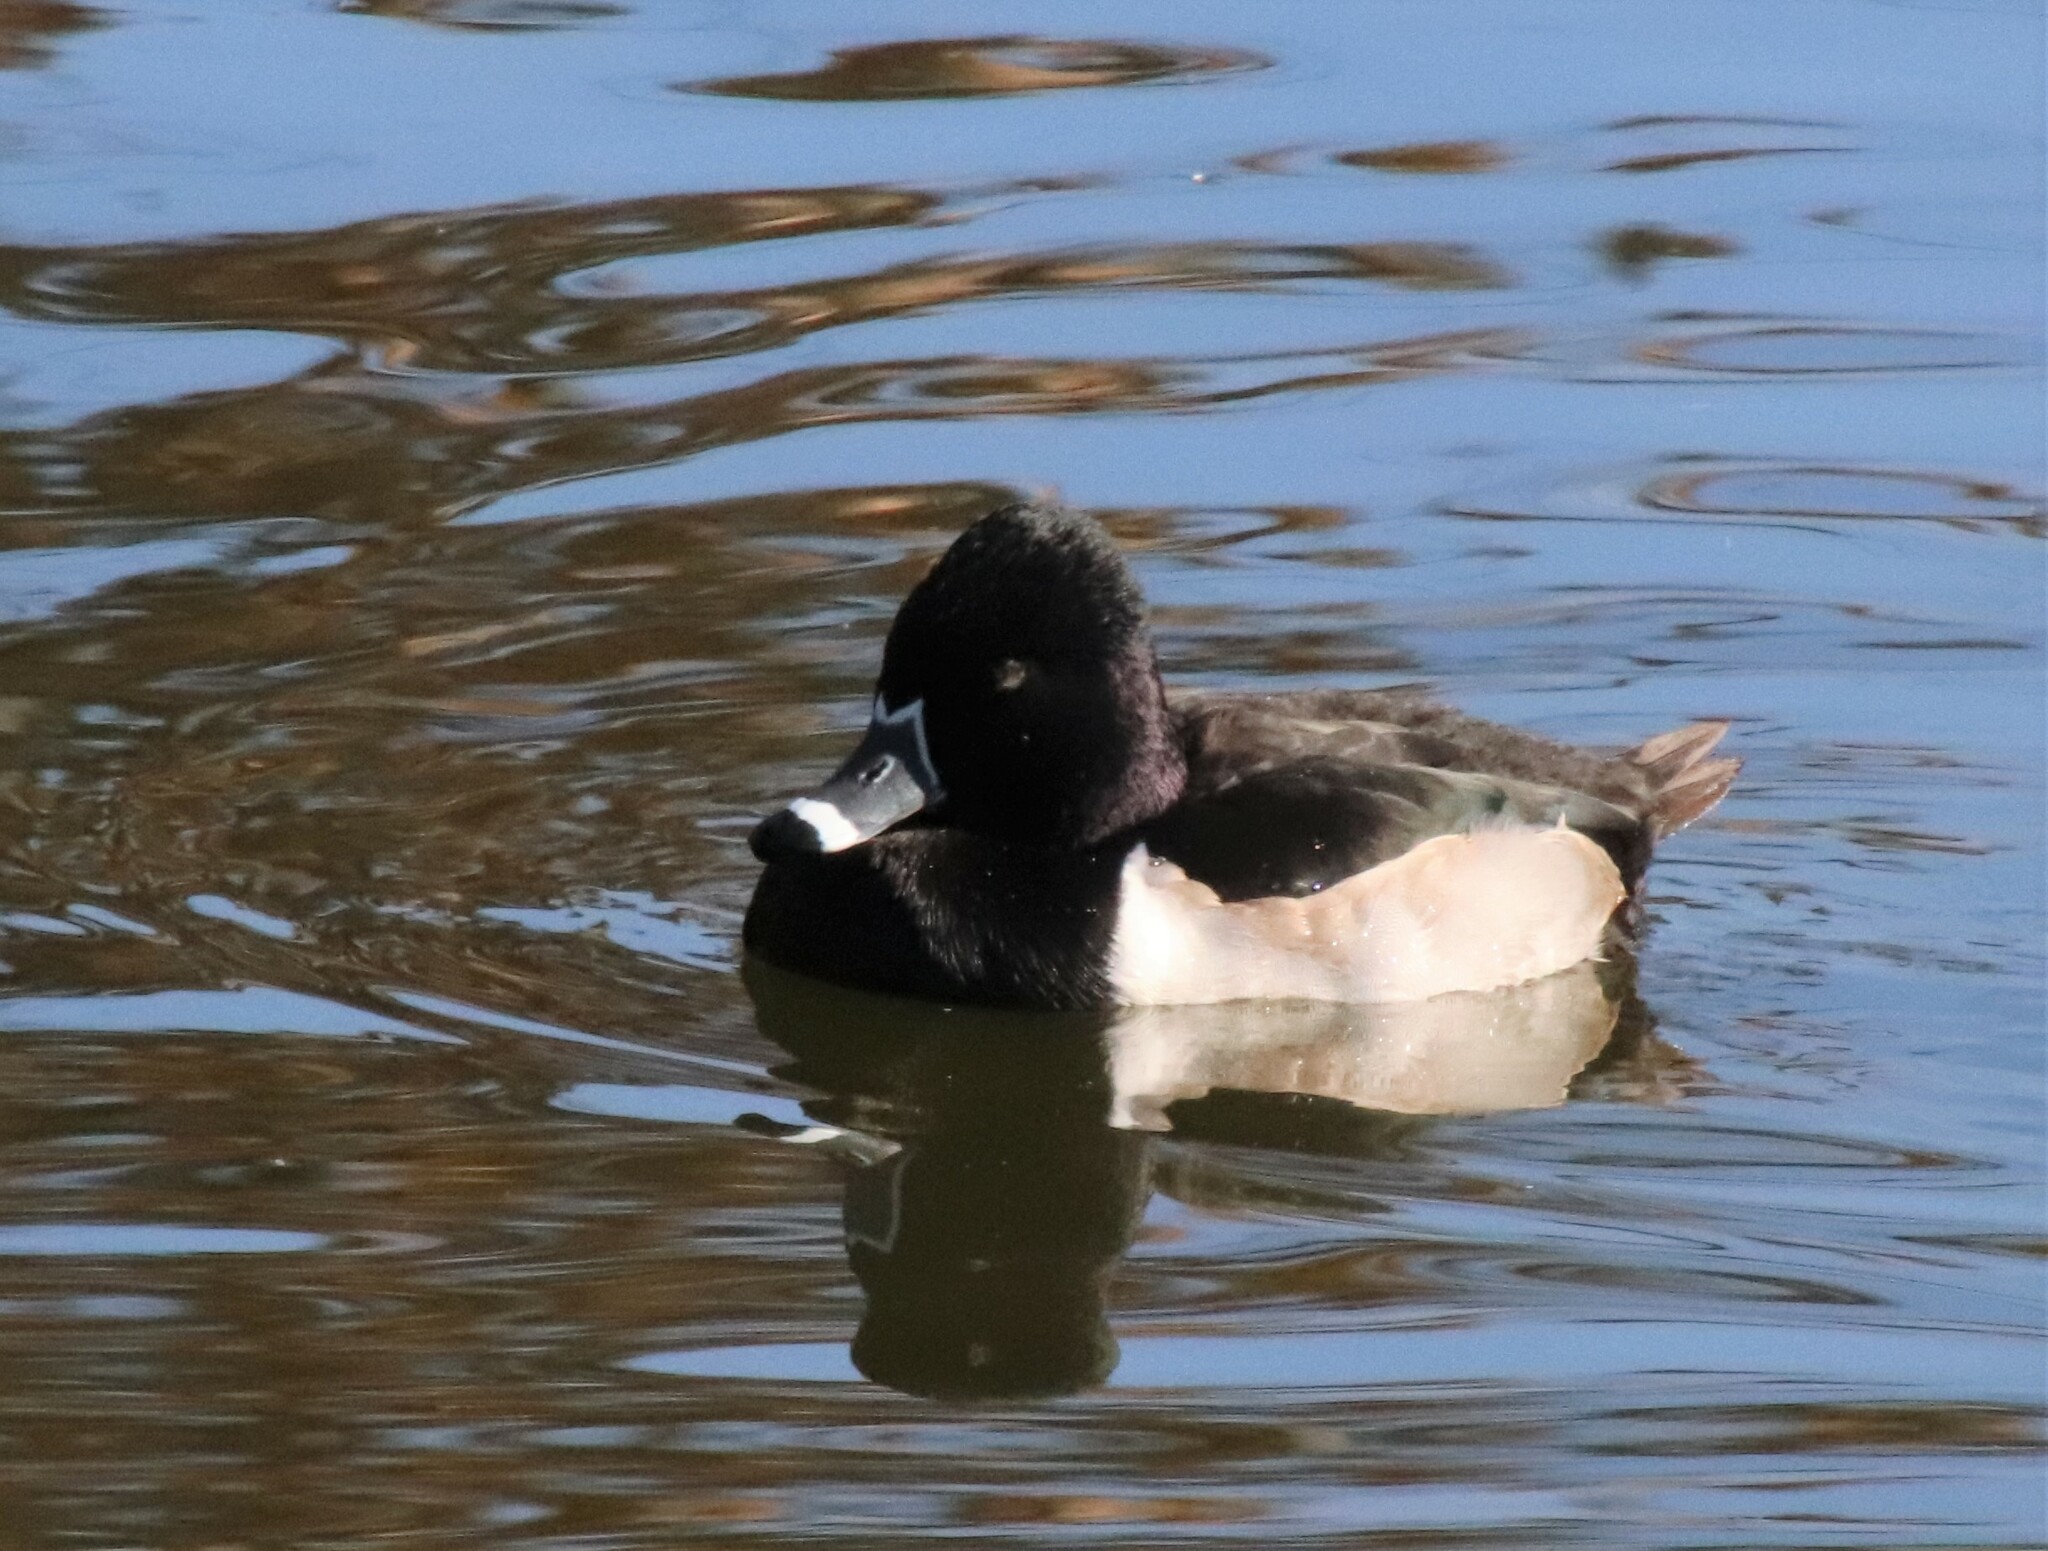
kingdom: Animalia
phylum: Chordata
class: Aves
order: Anseriformes
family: Anatidae
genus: Aythya
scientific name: Aythya collaris
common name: Ring-necked duck
